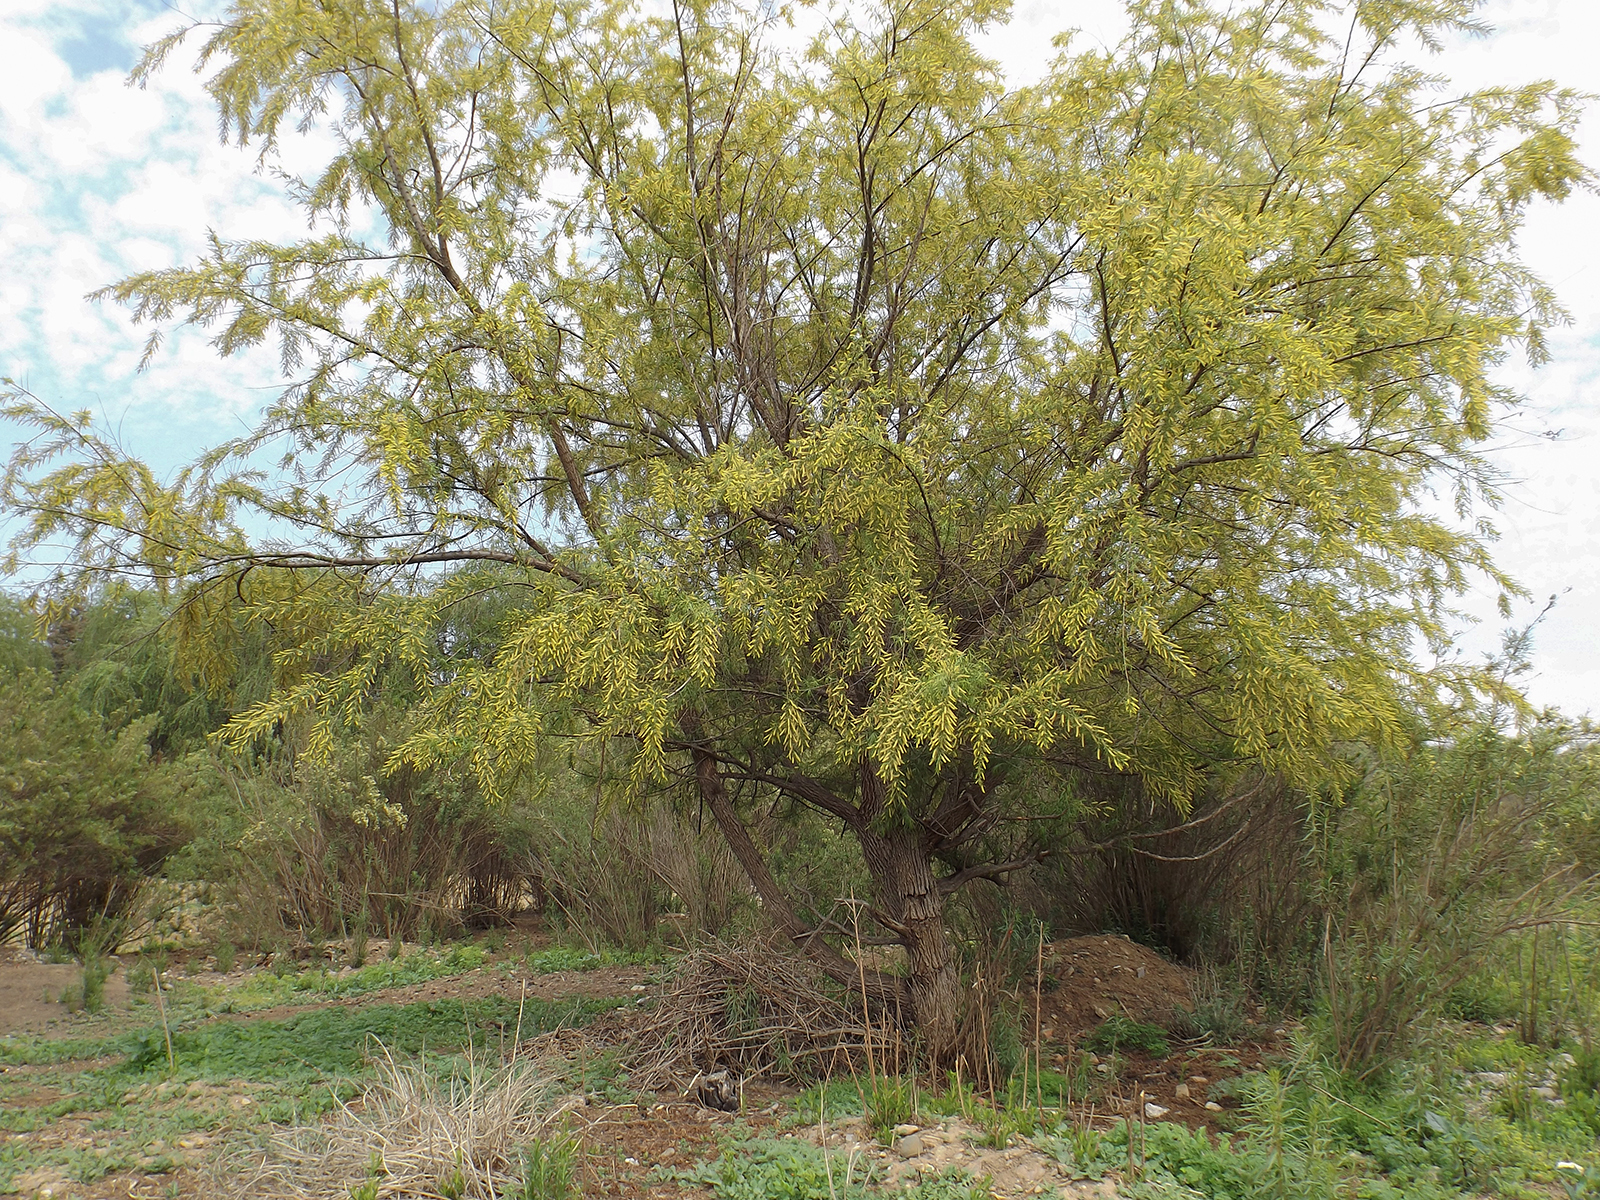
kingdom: Plantae
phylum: Tracheophyta
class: Magnoliopsida
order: Malpighiales
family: Salicaceae
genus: Salix
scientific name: Salix humboldtiana
